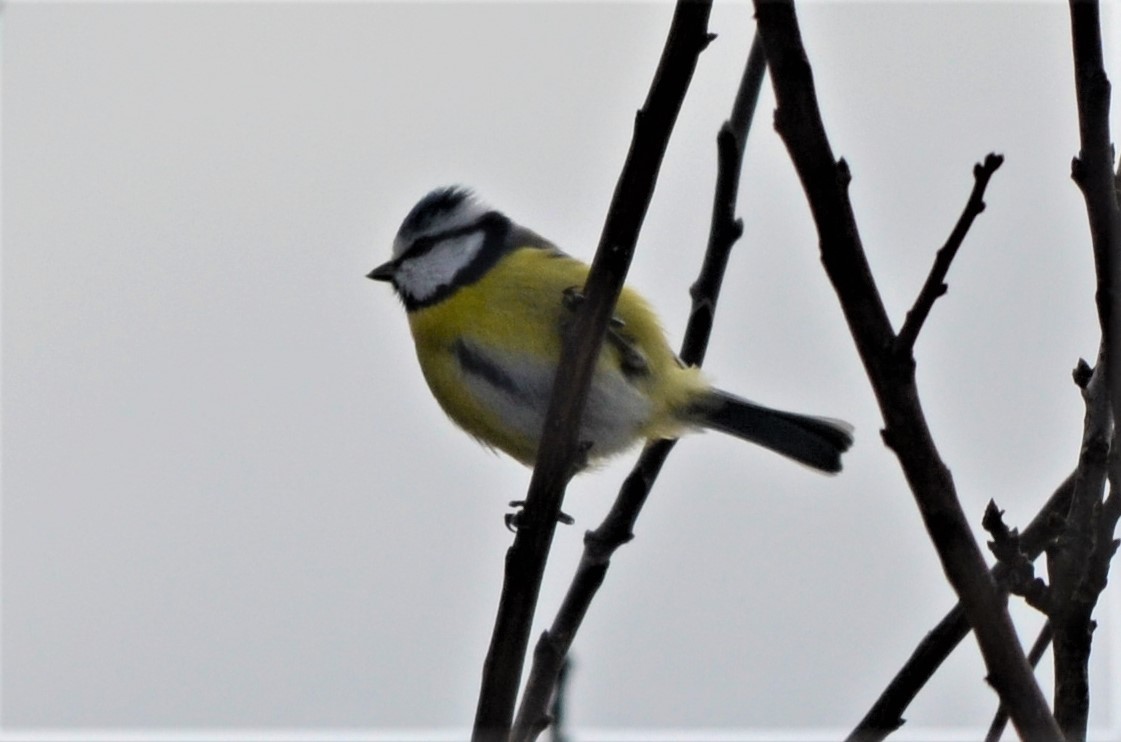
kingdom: Animalia
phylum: Chordata
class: Aves
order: Passeriformes
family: Paridae
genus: Cyanistes
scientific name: Cyanistes caeruleus
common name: Eurasian blue tit
